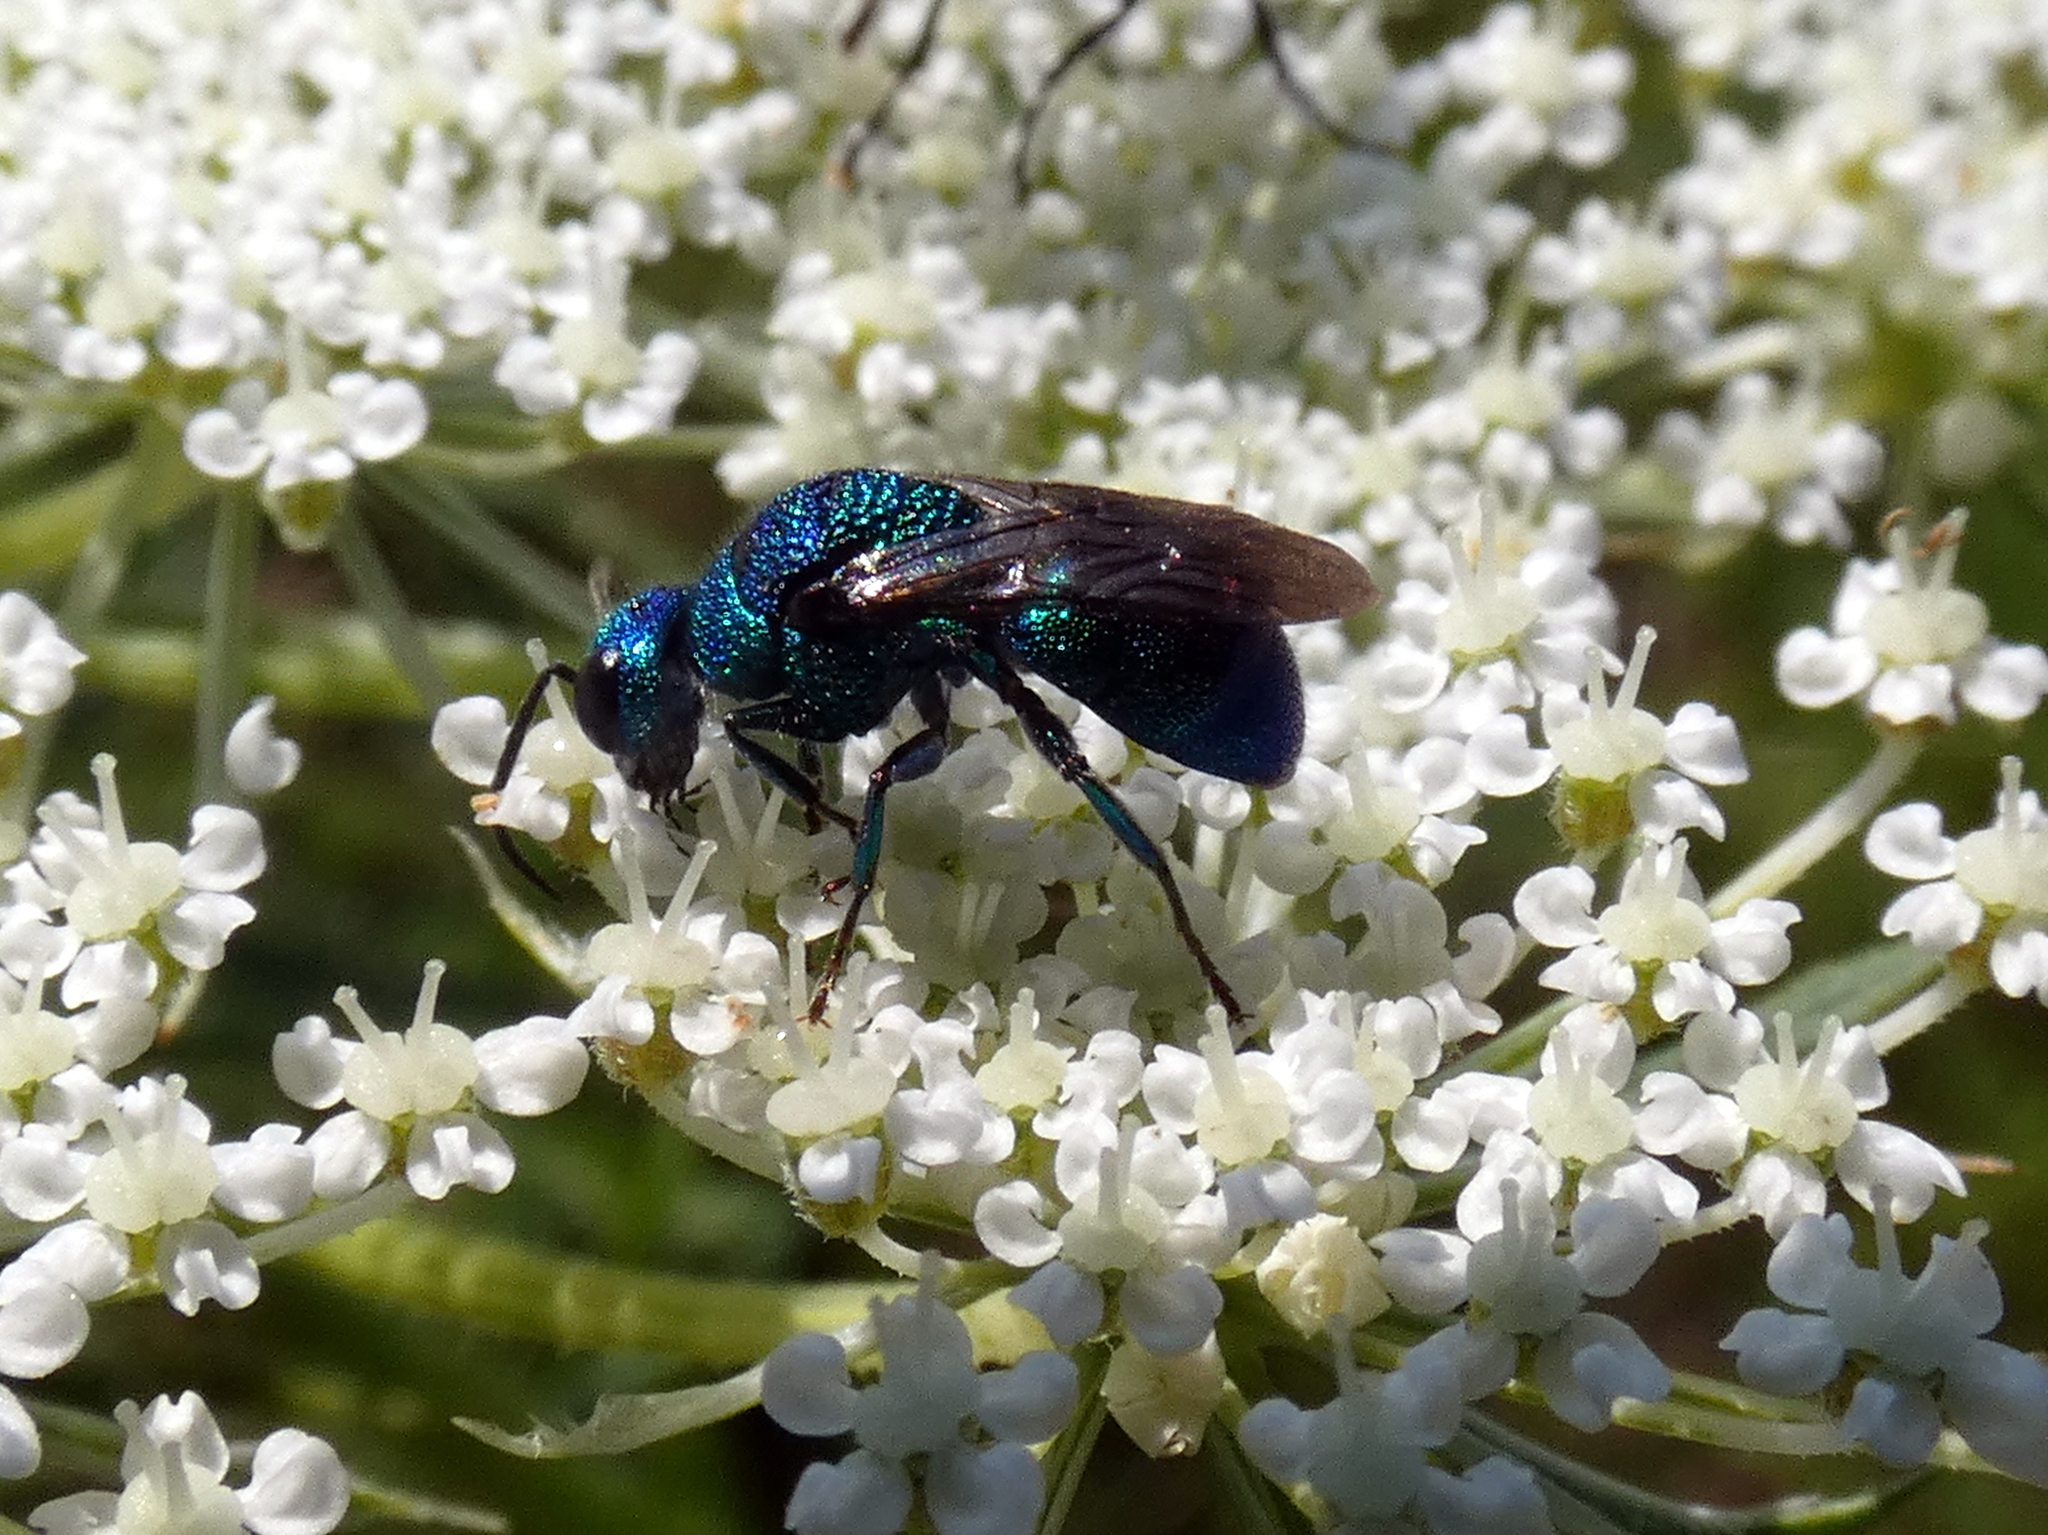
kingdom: Animalia
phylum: Arthropoda
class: Insecta
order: Hymenoptera
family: Chrysididae
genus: Holopyga
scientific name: Holopyga
